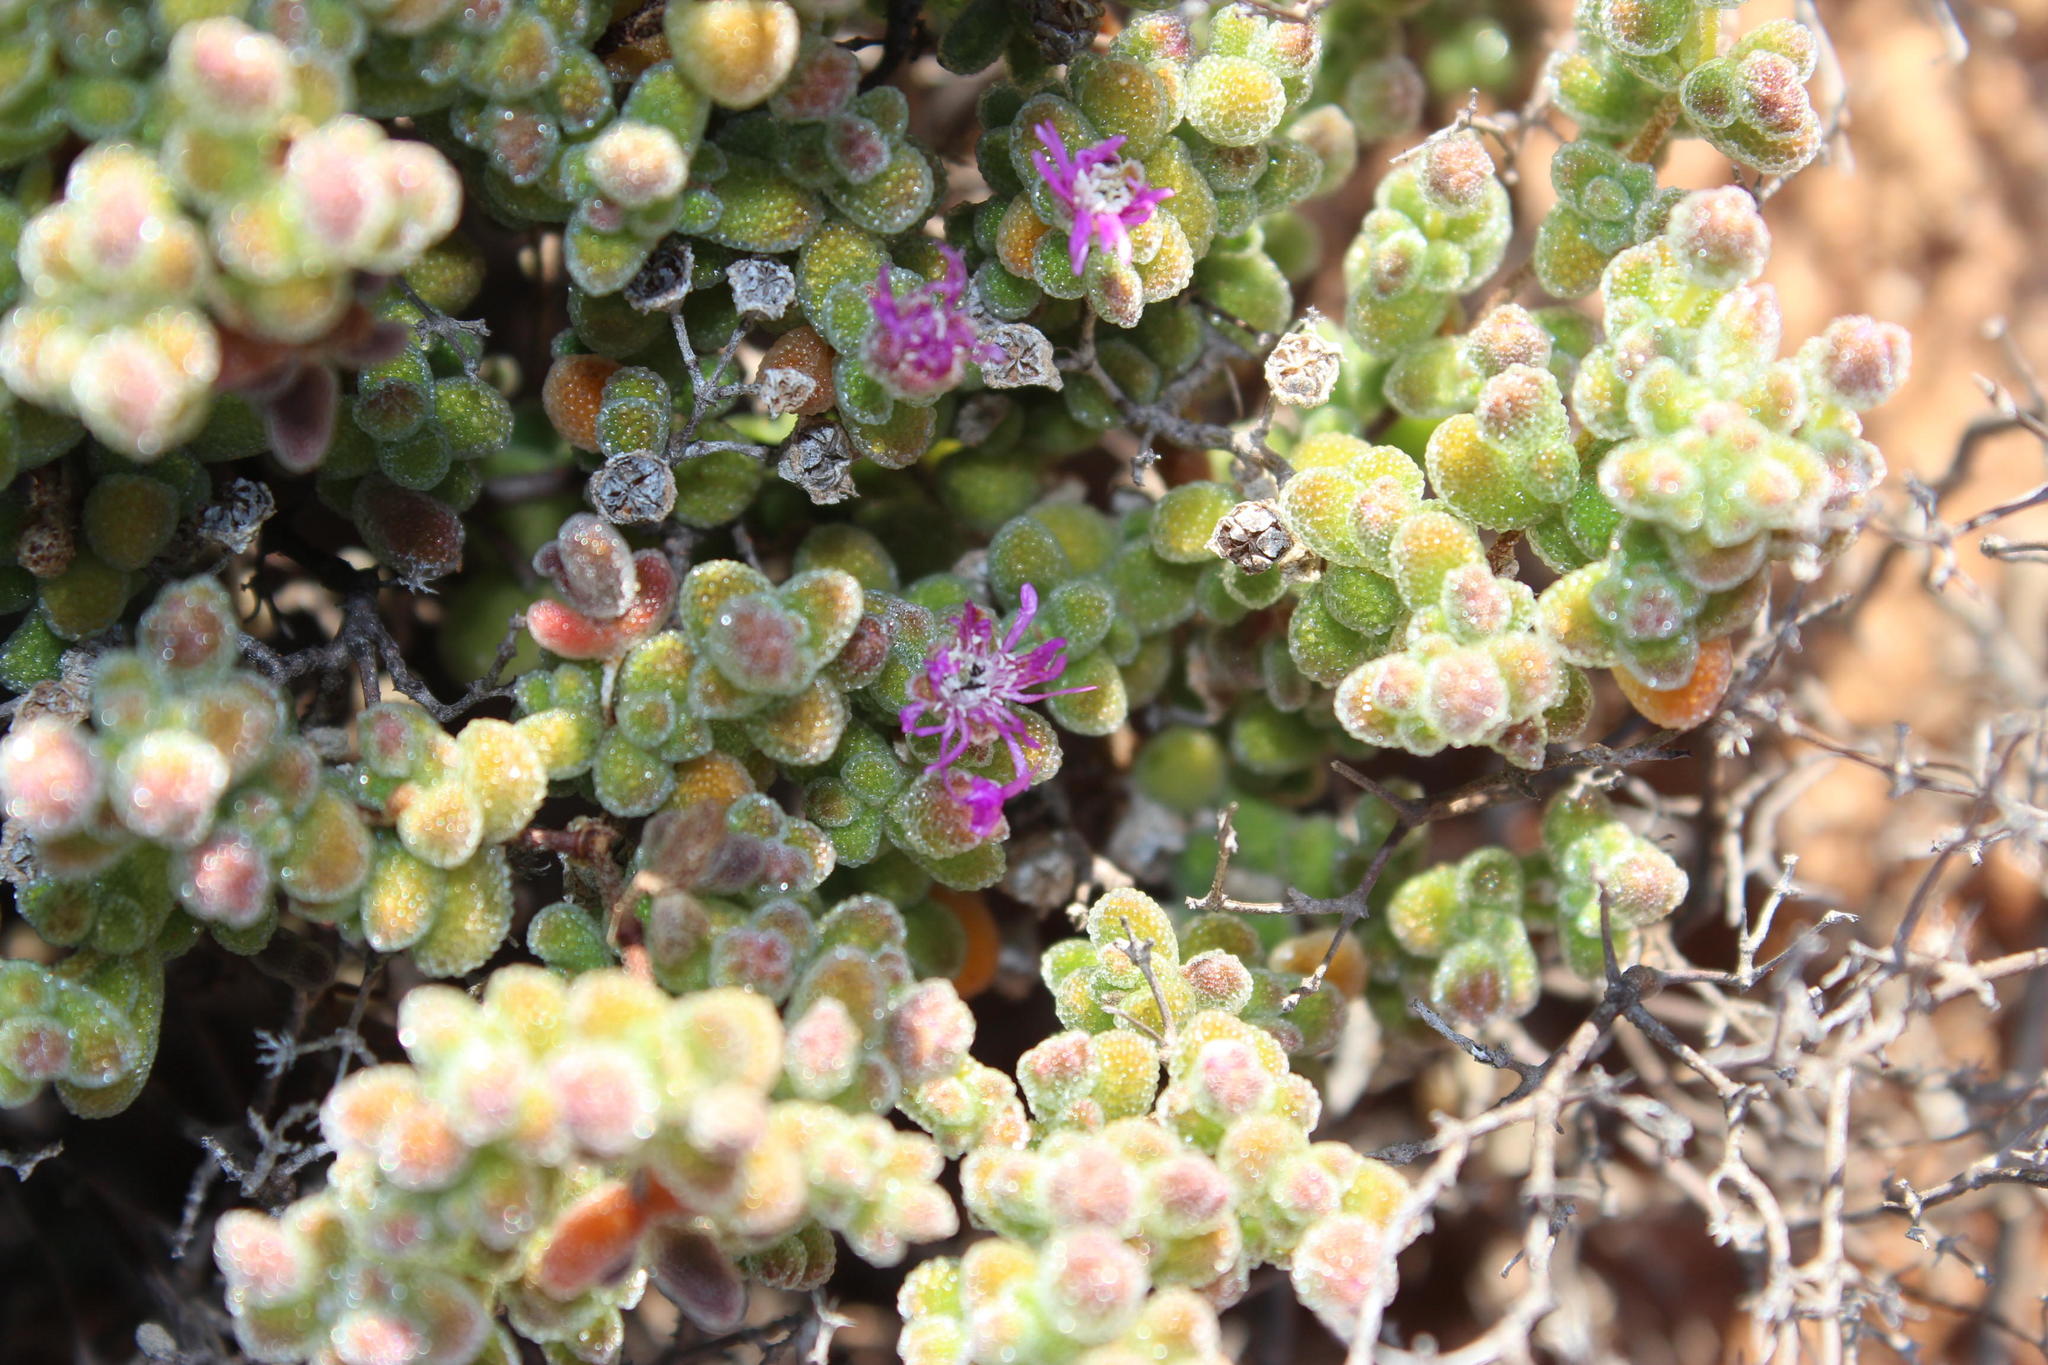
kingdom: Plantae
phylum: Tracheophyta
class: Magnoliopsida
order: Caryophyllales
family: Aizoaceae
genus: Drosanthemum
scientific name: Drosanthemum brevifolium
